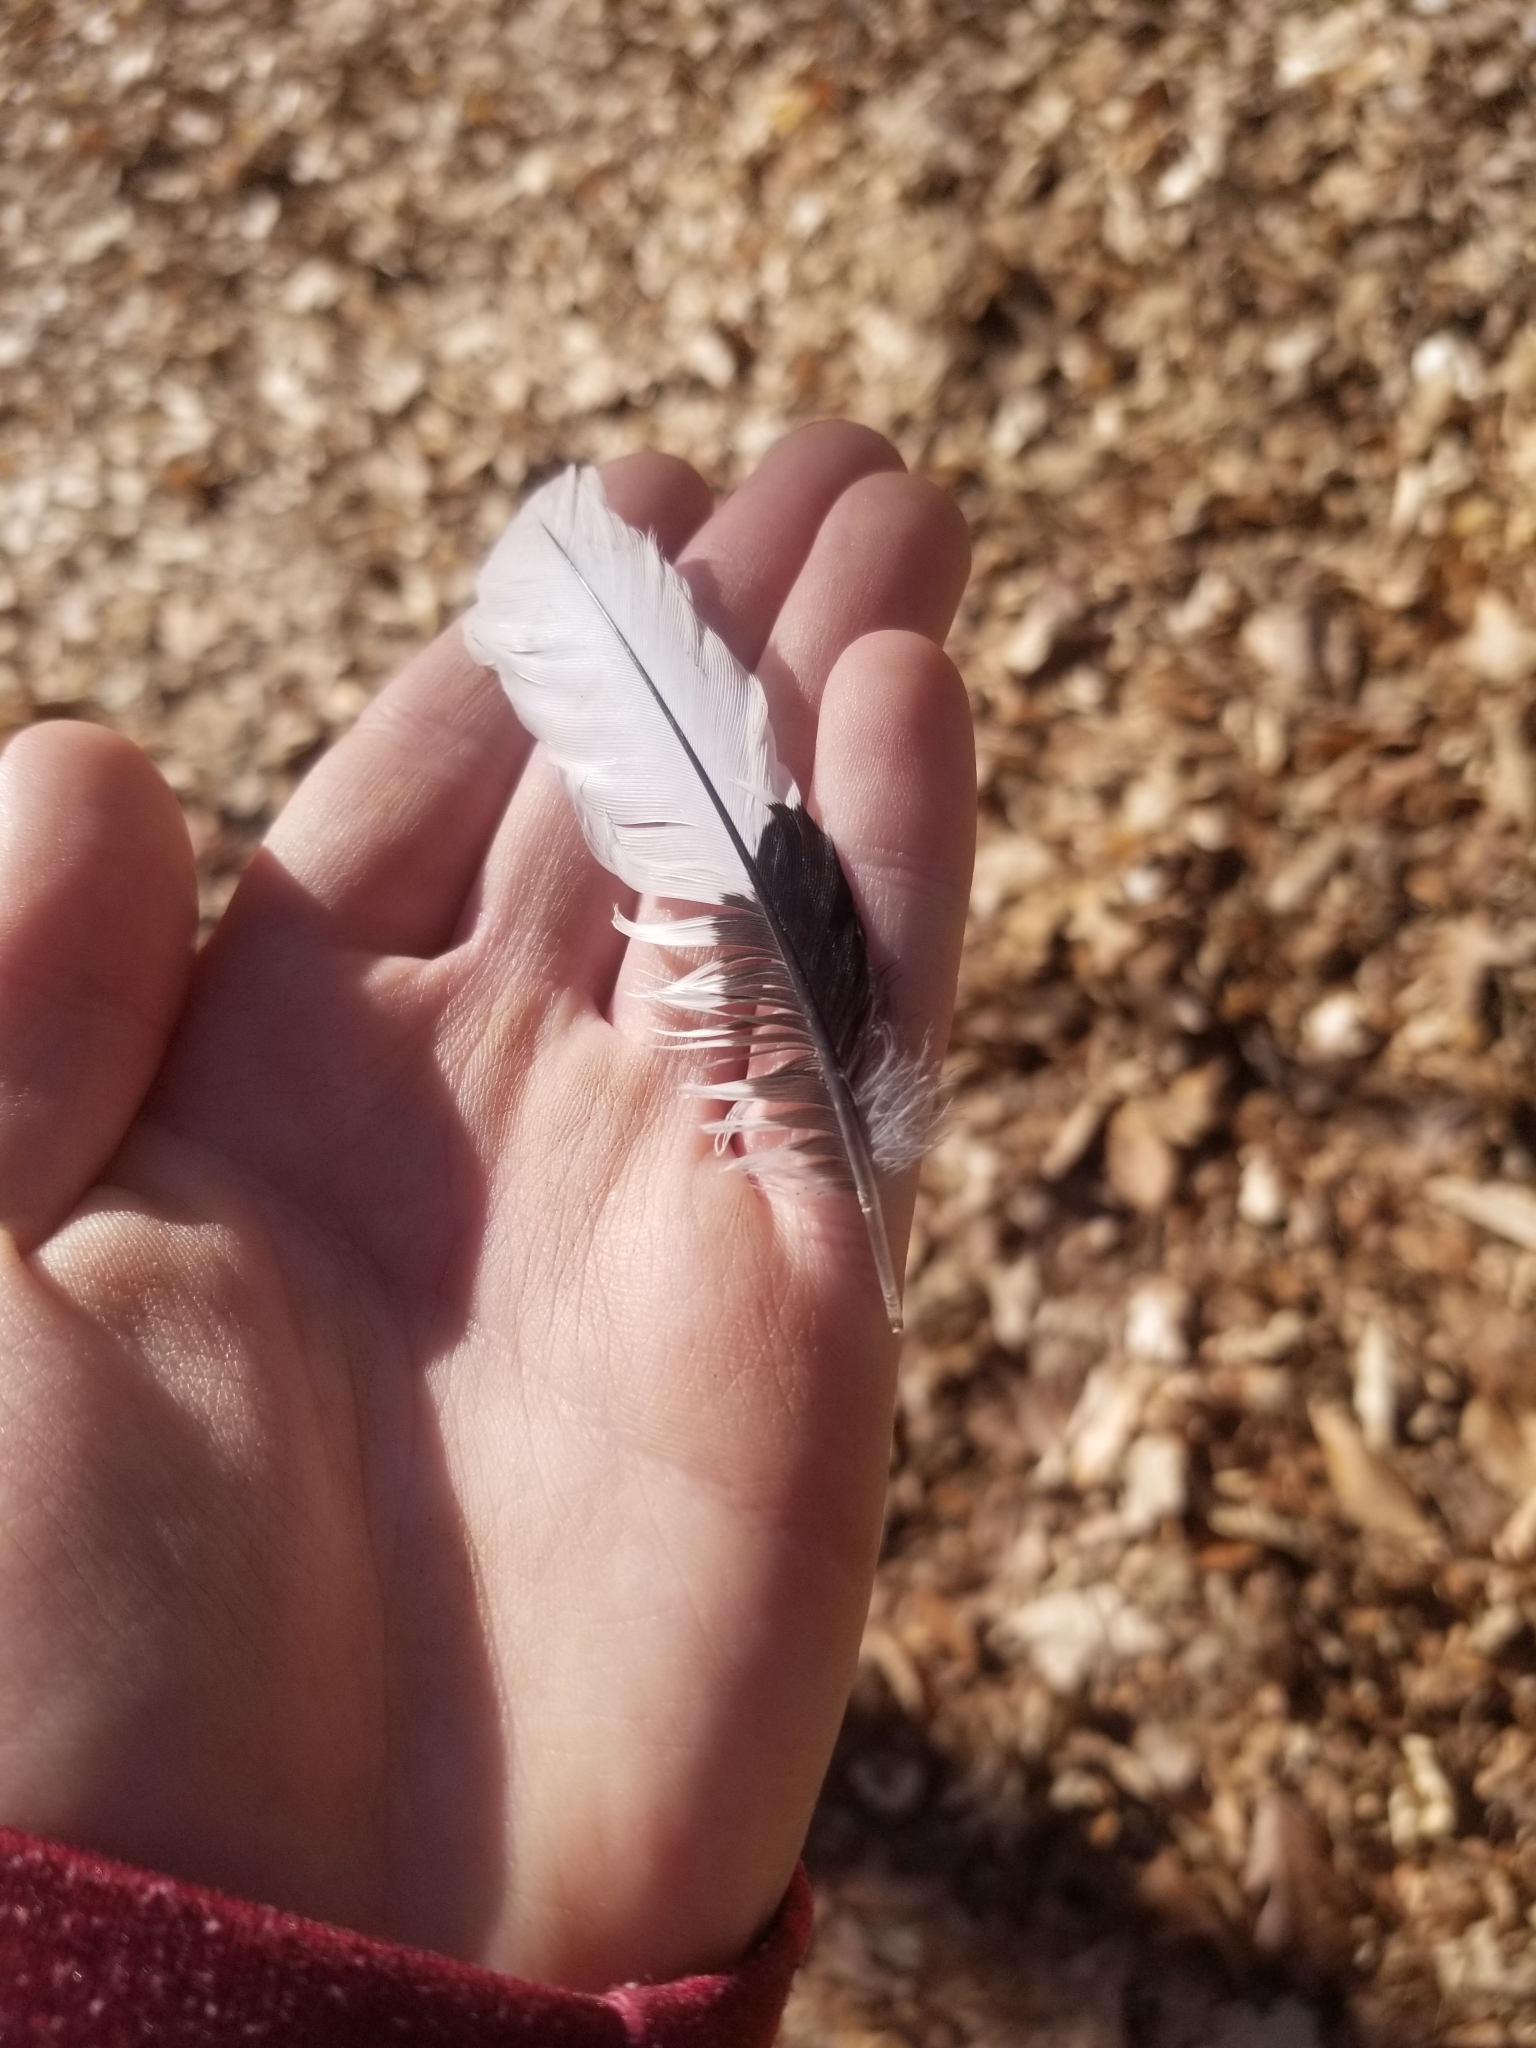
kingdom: Animalia
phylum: Chordata
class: Aves
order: Piciformes
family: Picidae
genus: Melanerpes
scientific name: Melanerpes erythrocephalus
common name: Red-headed woodpecker
